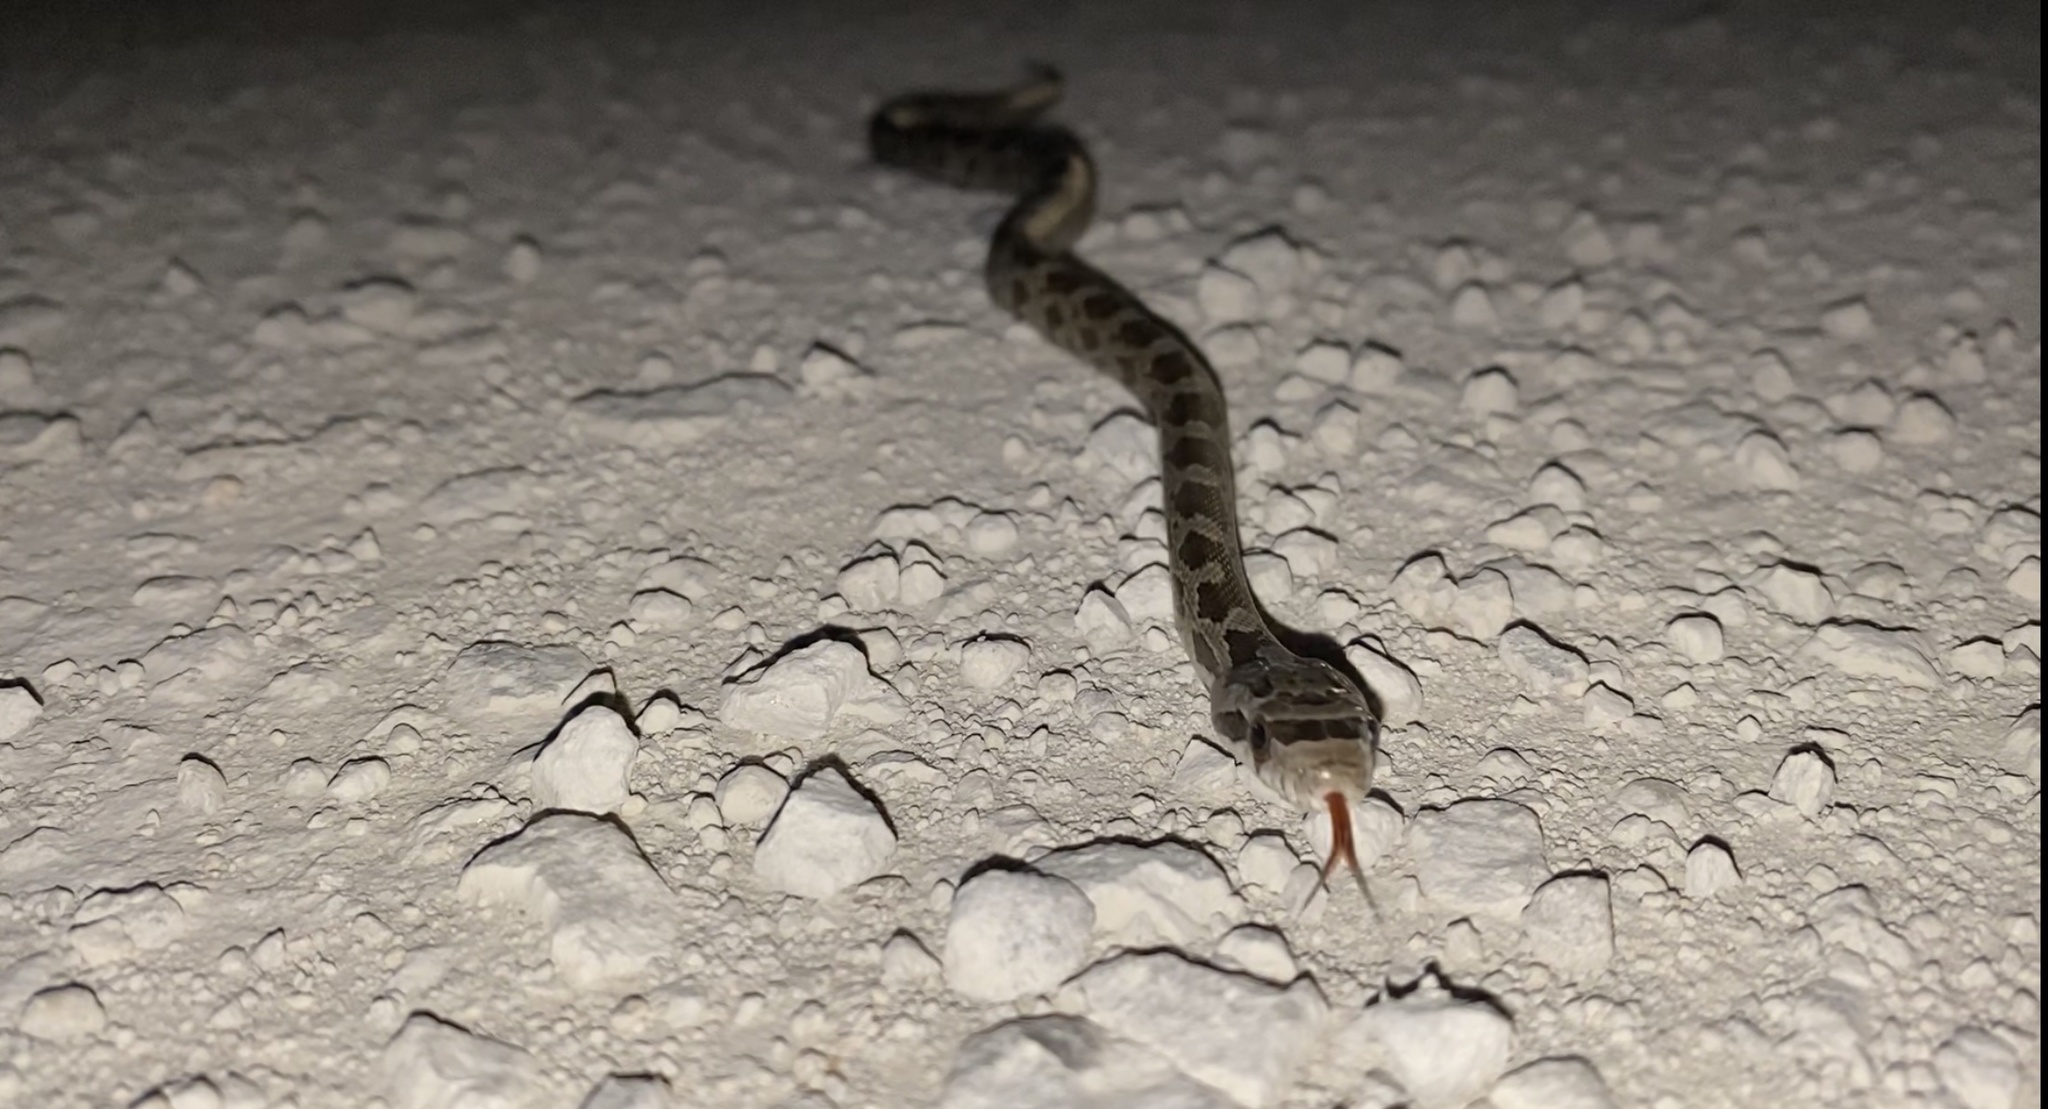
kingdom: Animalia
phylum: Chordata
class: Squamata
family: Colubridae
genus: Pantherophis
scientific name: Pantherophis obsoletus
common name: Black rat snake
